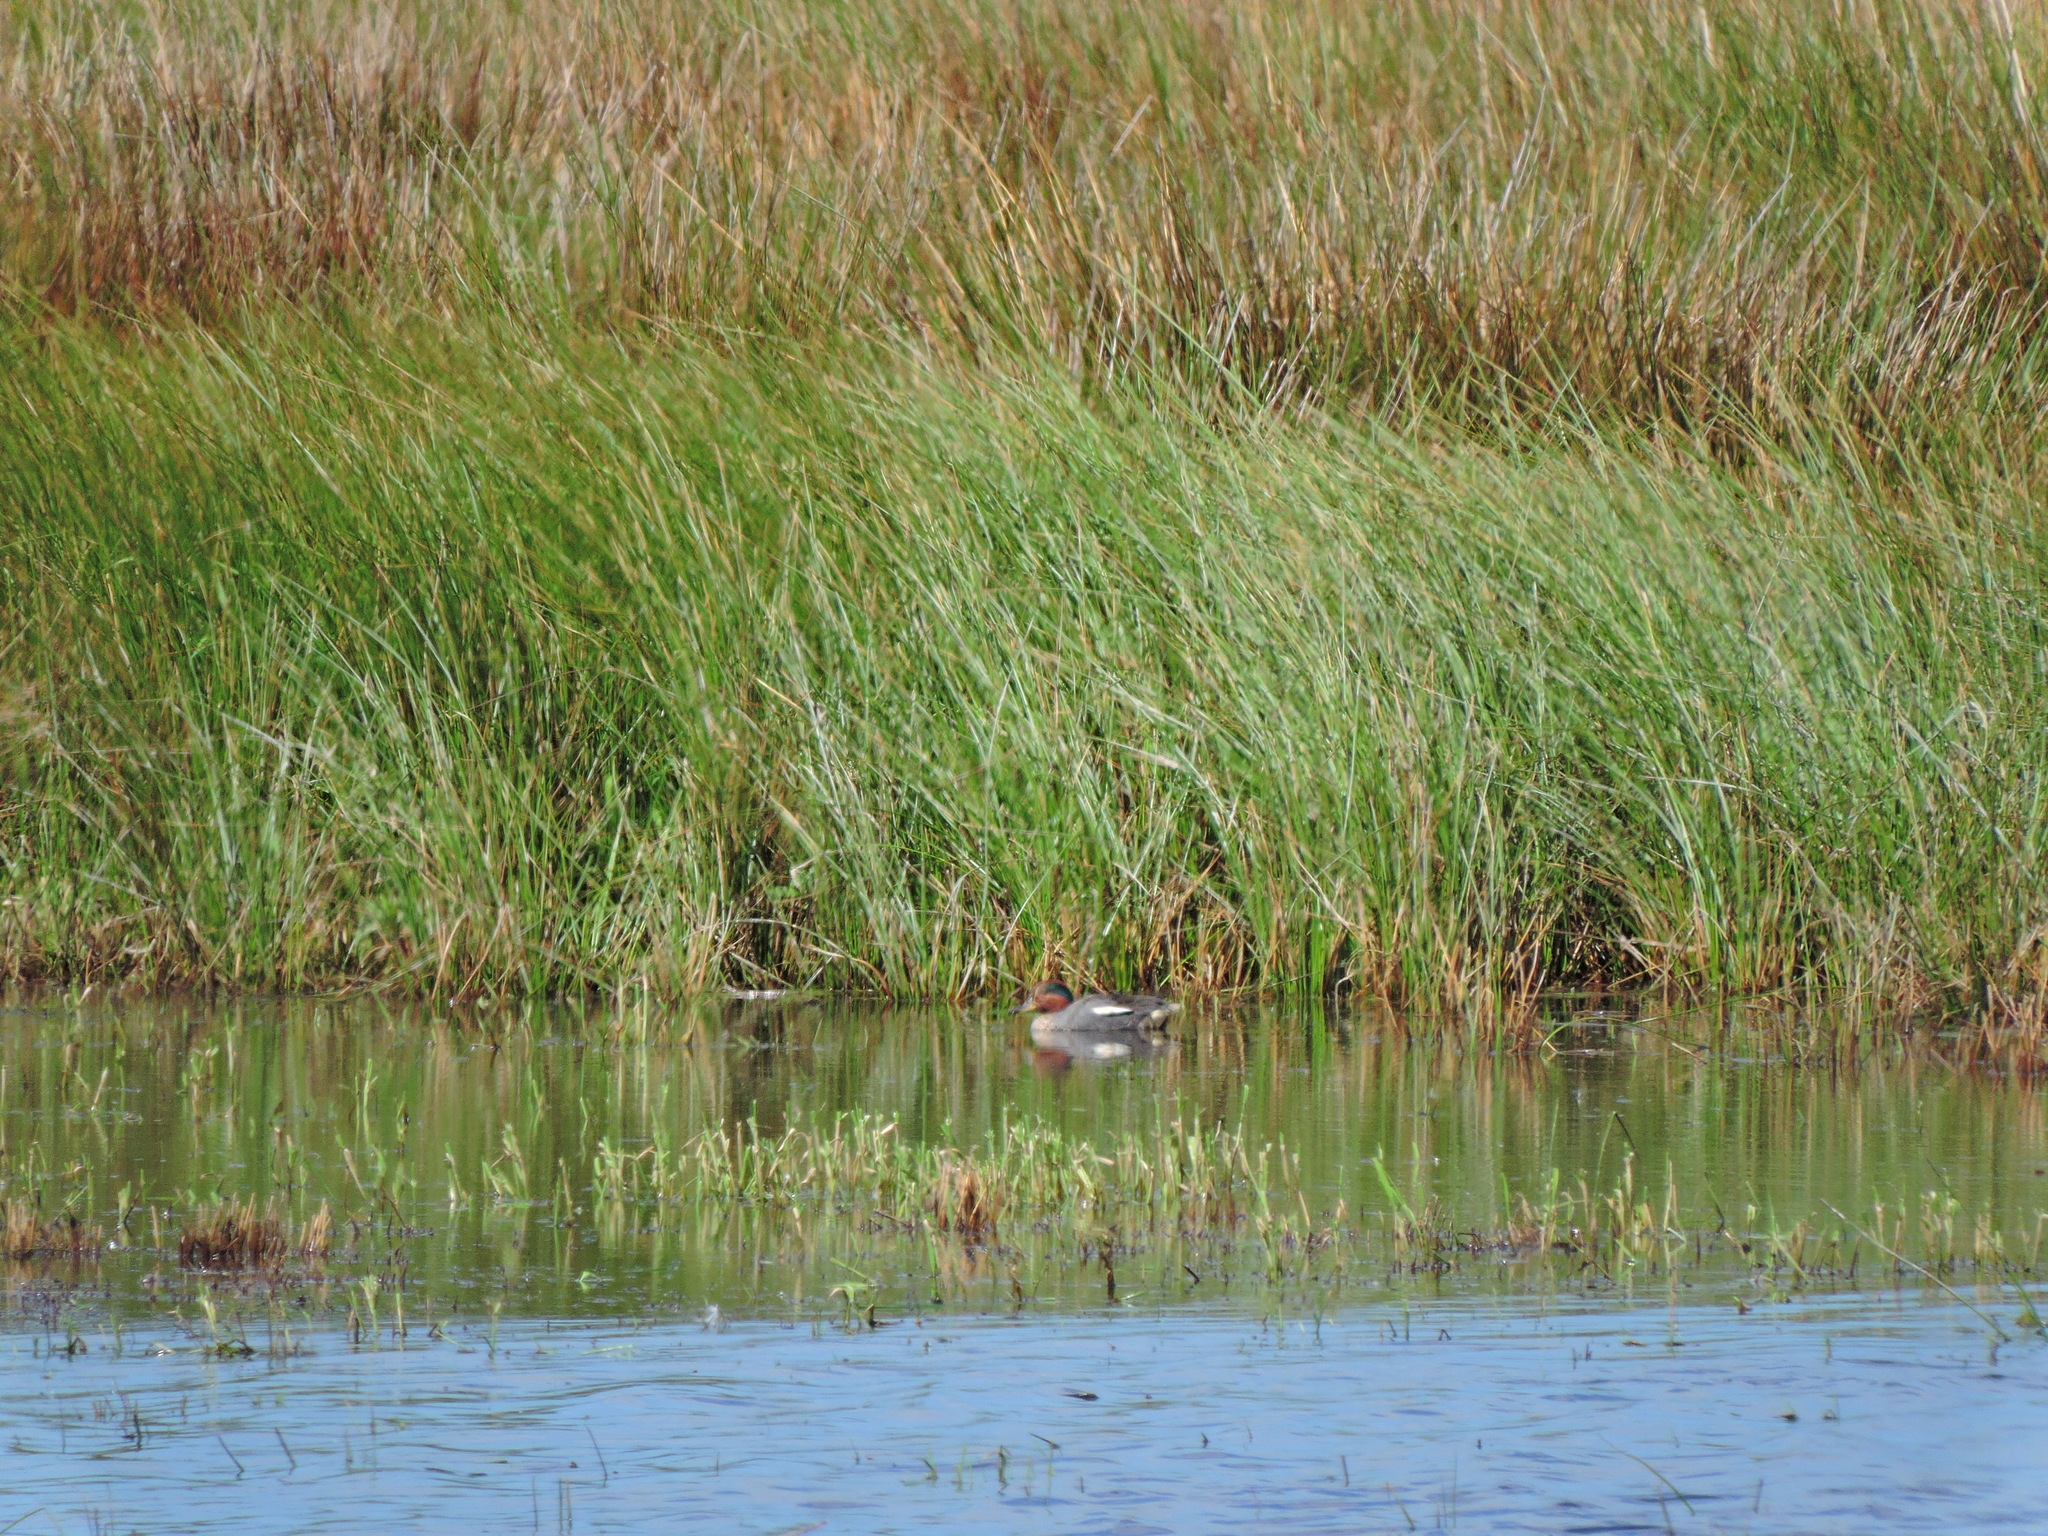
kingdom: Animalia
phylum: Chordata
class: Aves
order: Anseriformes
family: Anatidae
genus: Anas
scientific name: Anas crecca
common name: Eurasian teal
